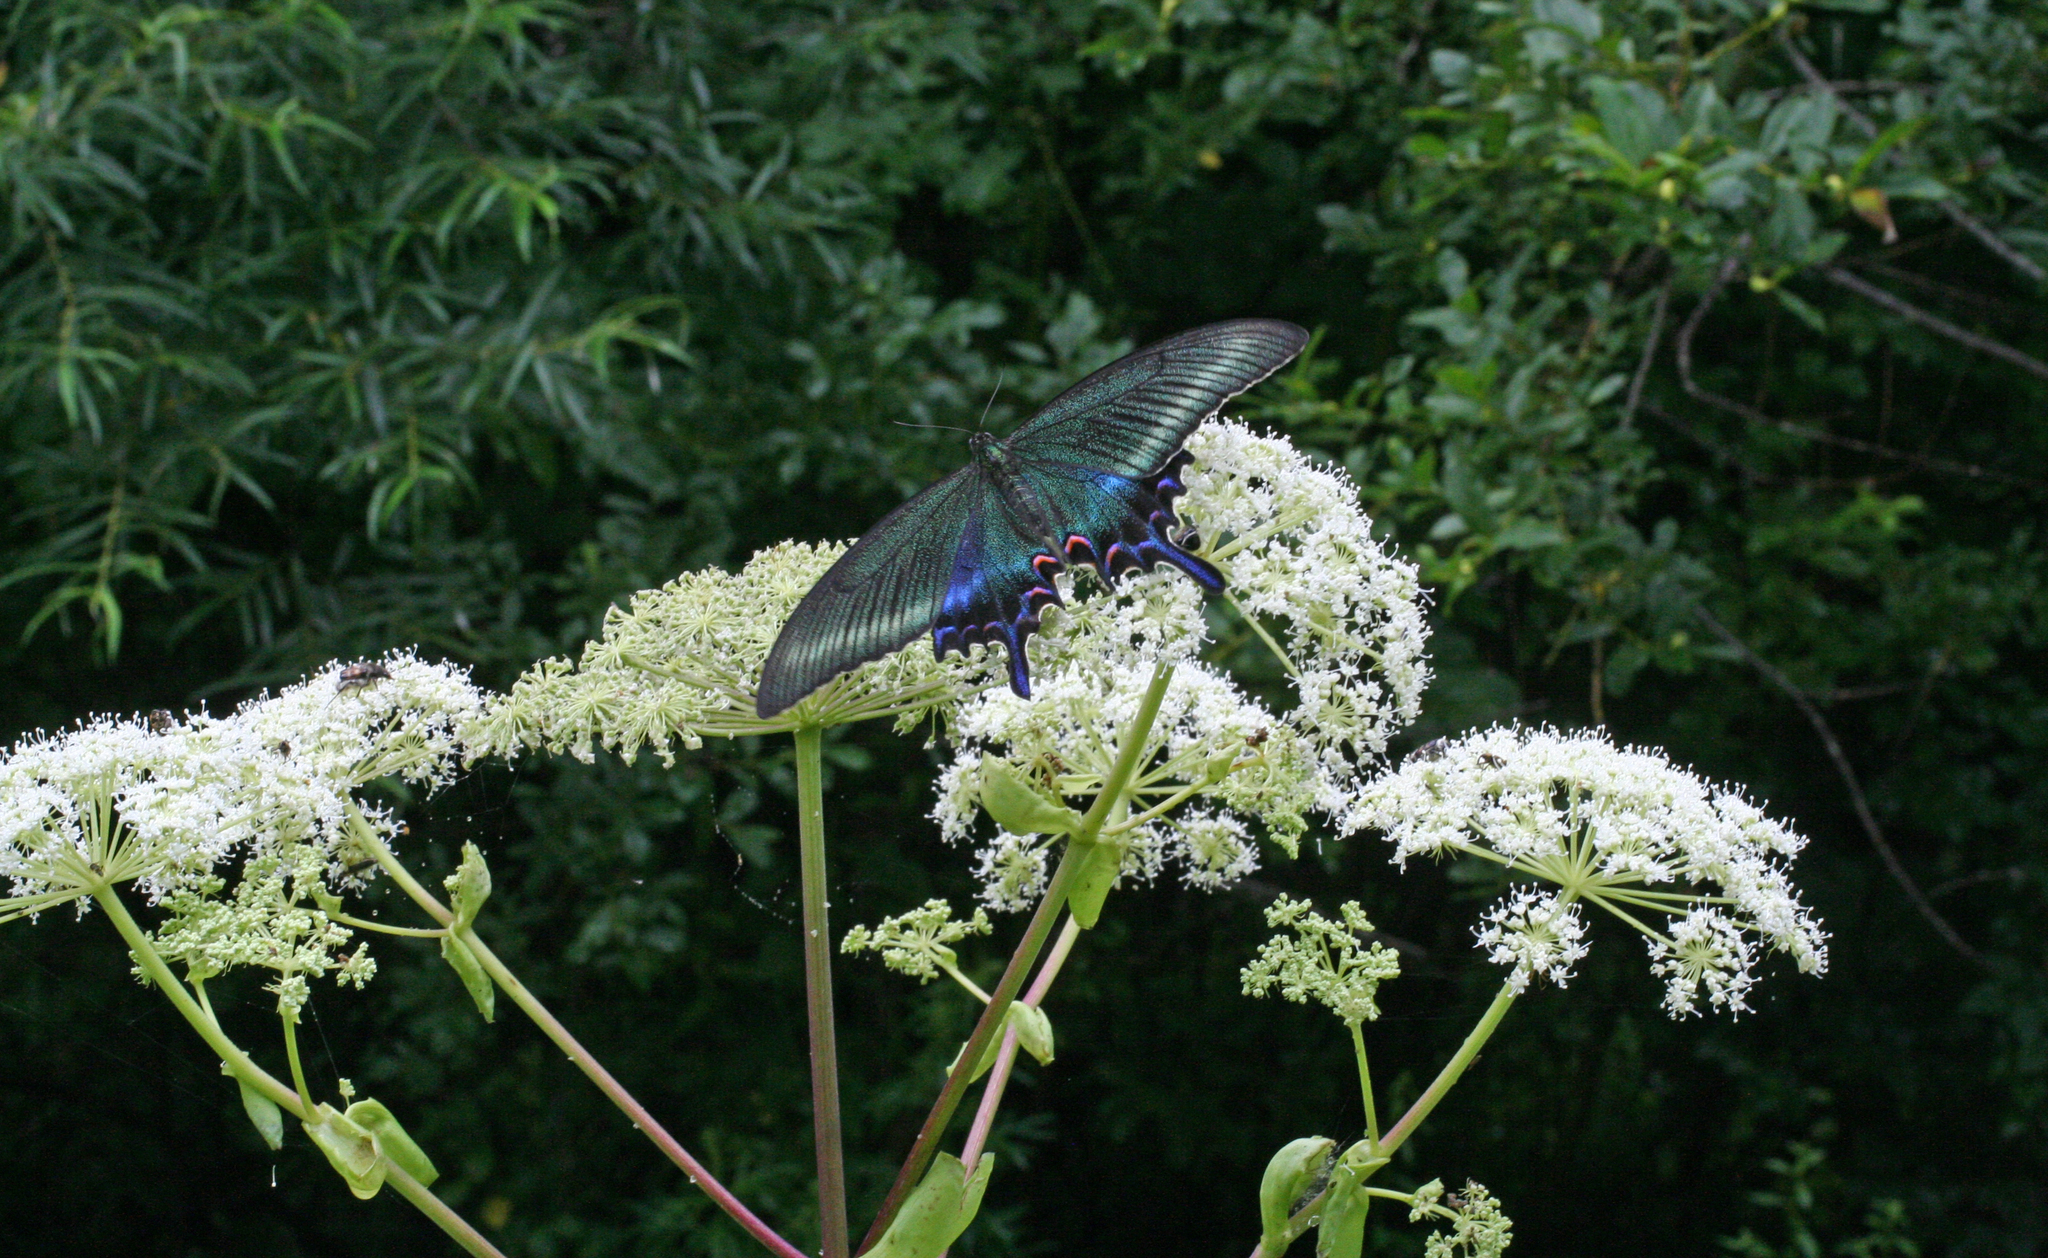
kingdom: Plantae
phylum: Tracheophyta
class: Magnoliopsida
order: Apiales
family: Apiaceae
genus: Angelica
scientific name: Angelica dahurica
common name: Dahurian angelica
